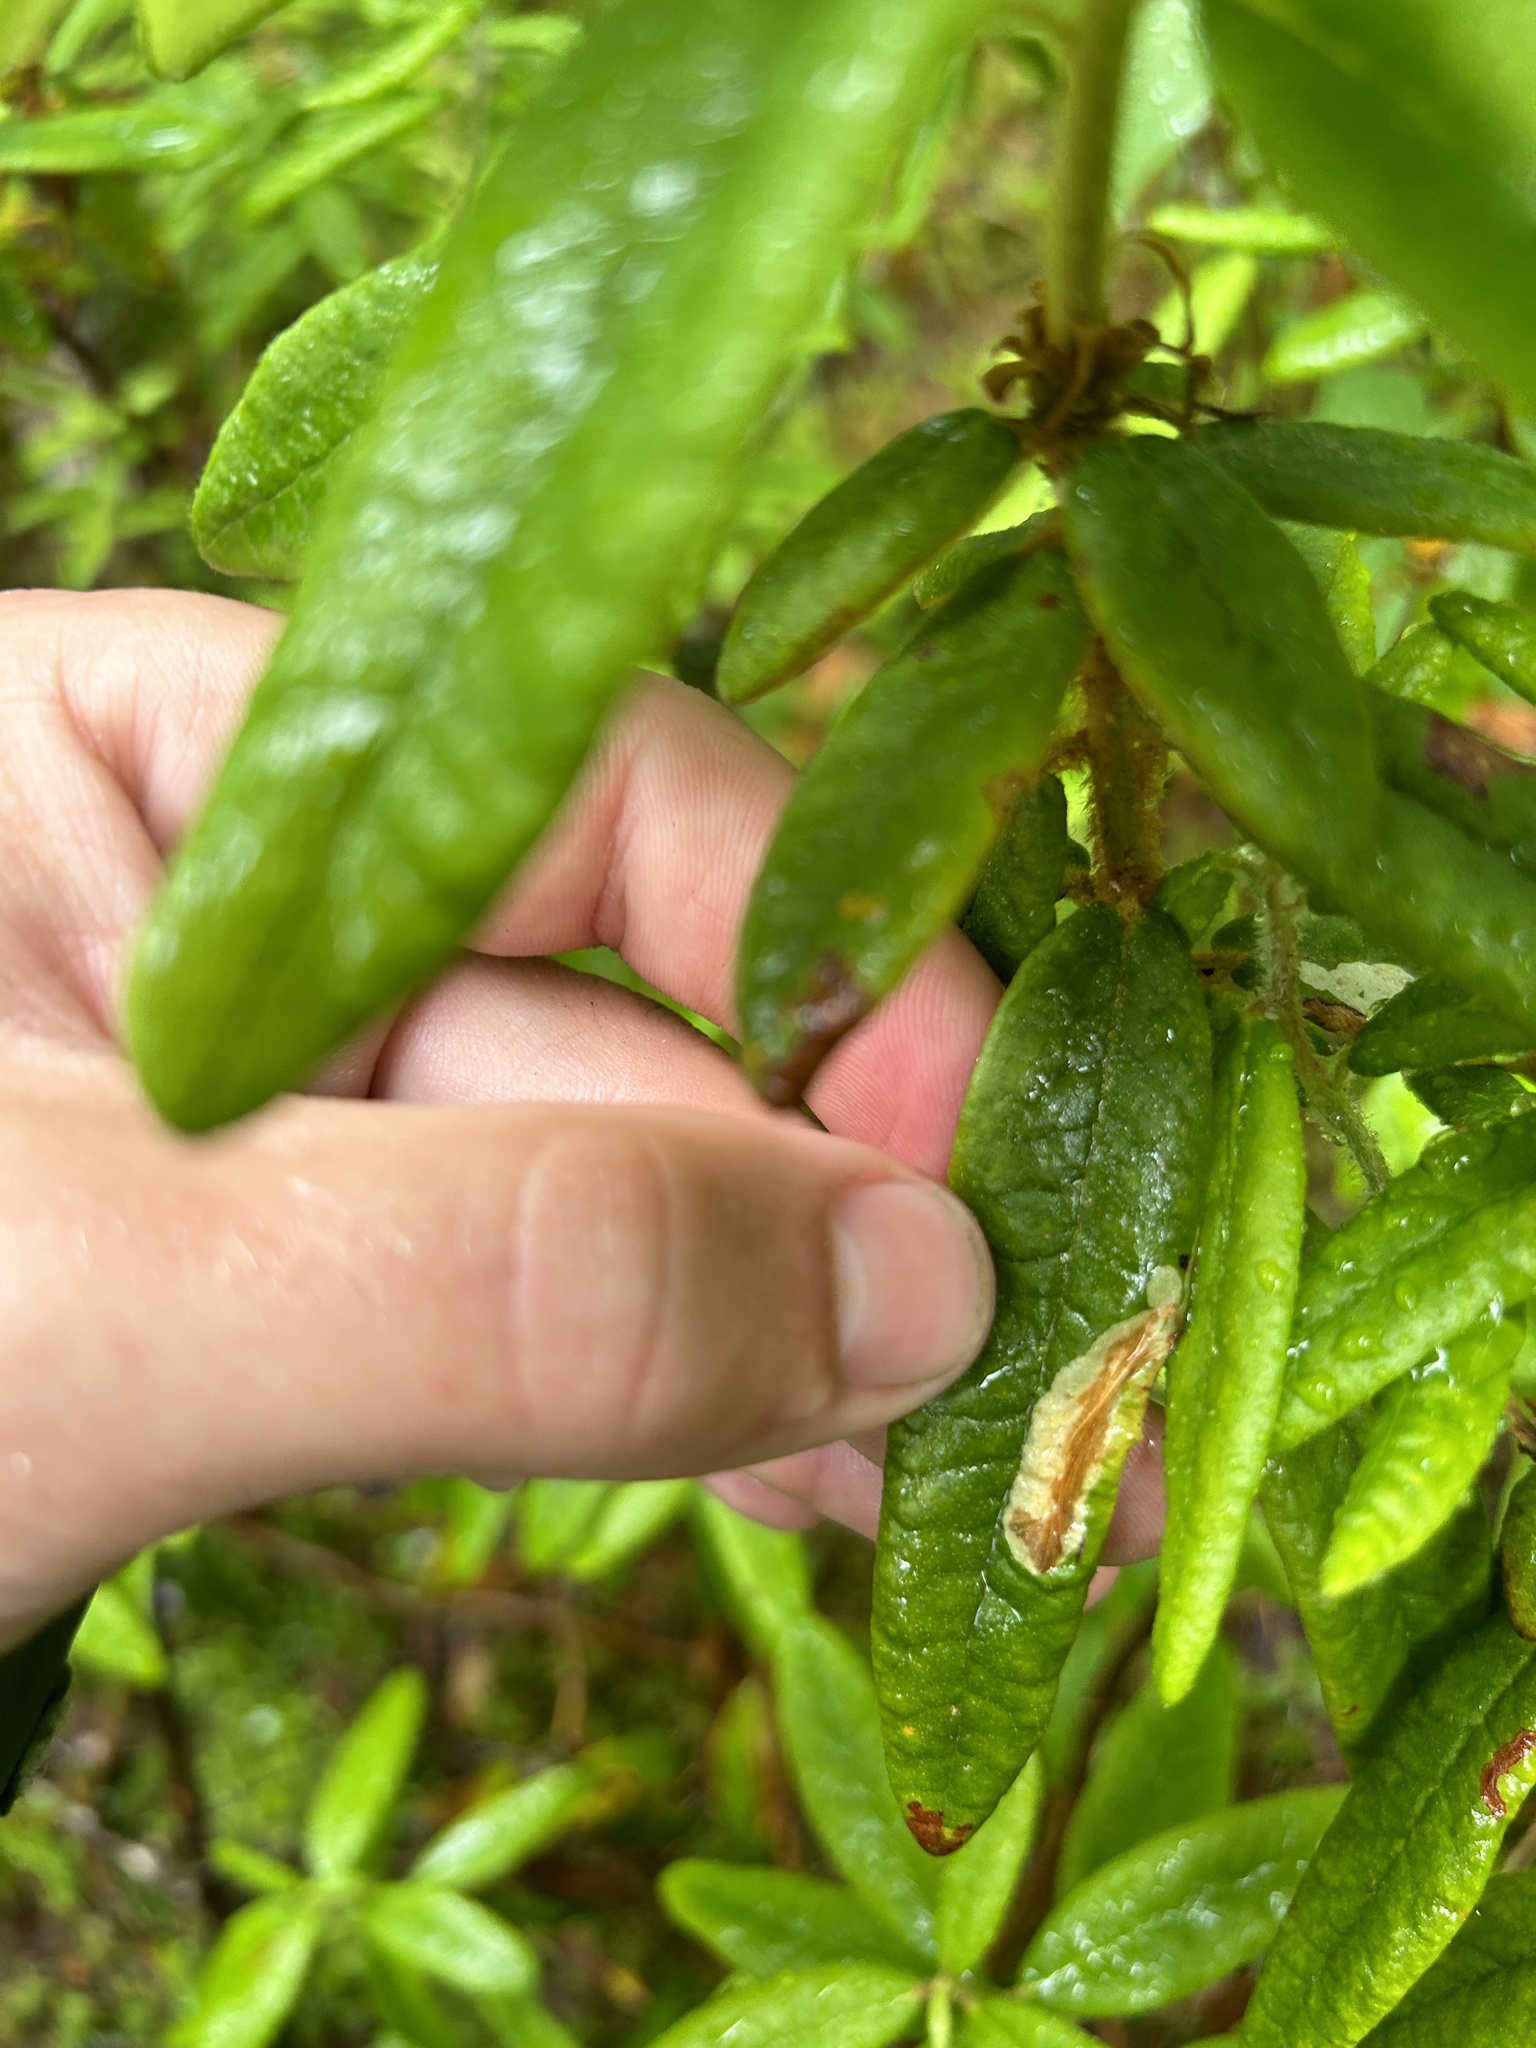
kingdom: Animalia
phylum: Arthropoda
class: Insecta
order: Lepidoptera
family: Gracillariidae
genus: Phyllonorycter
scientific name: Phyllonorycter ledella
